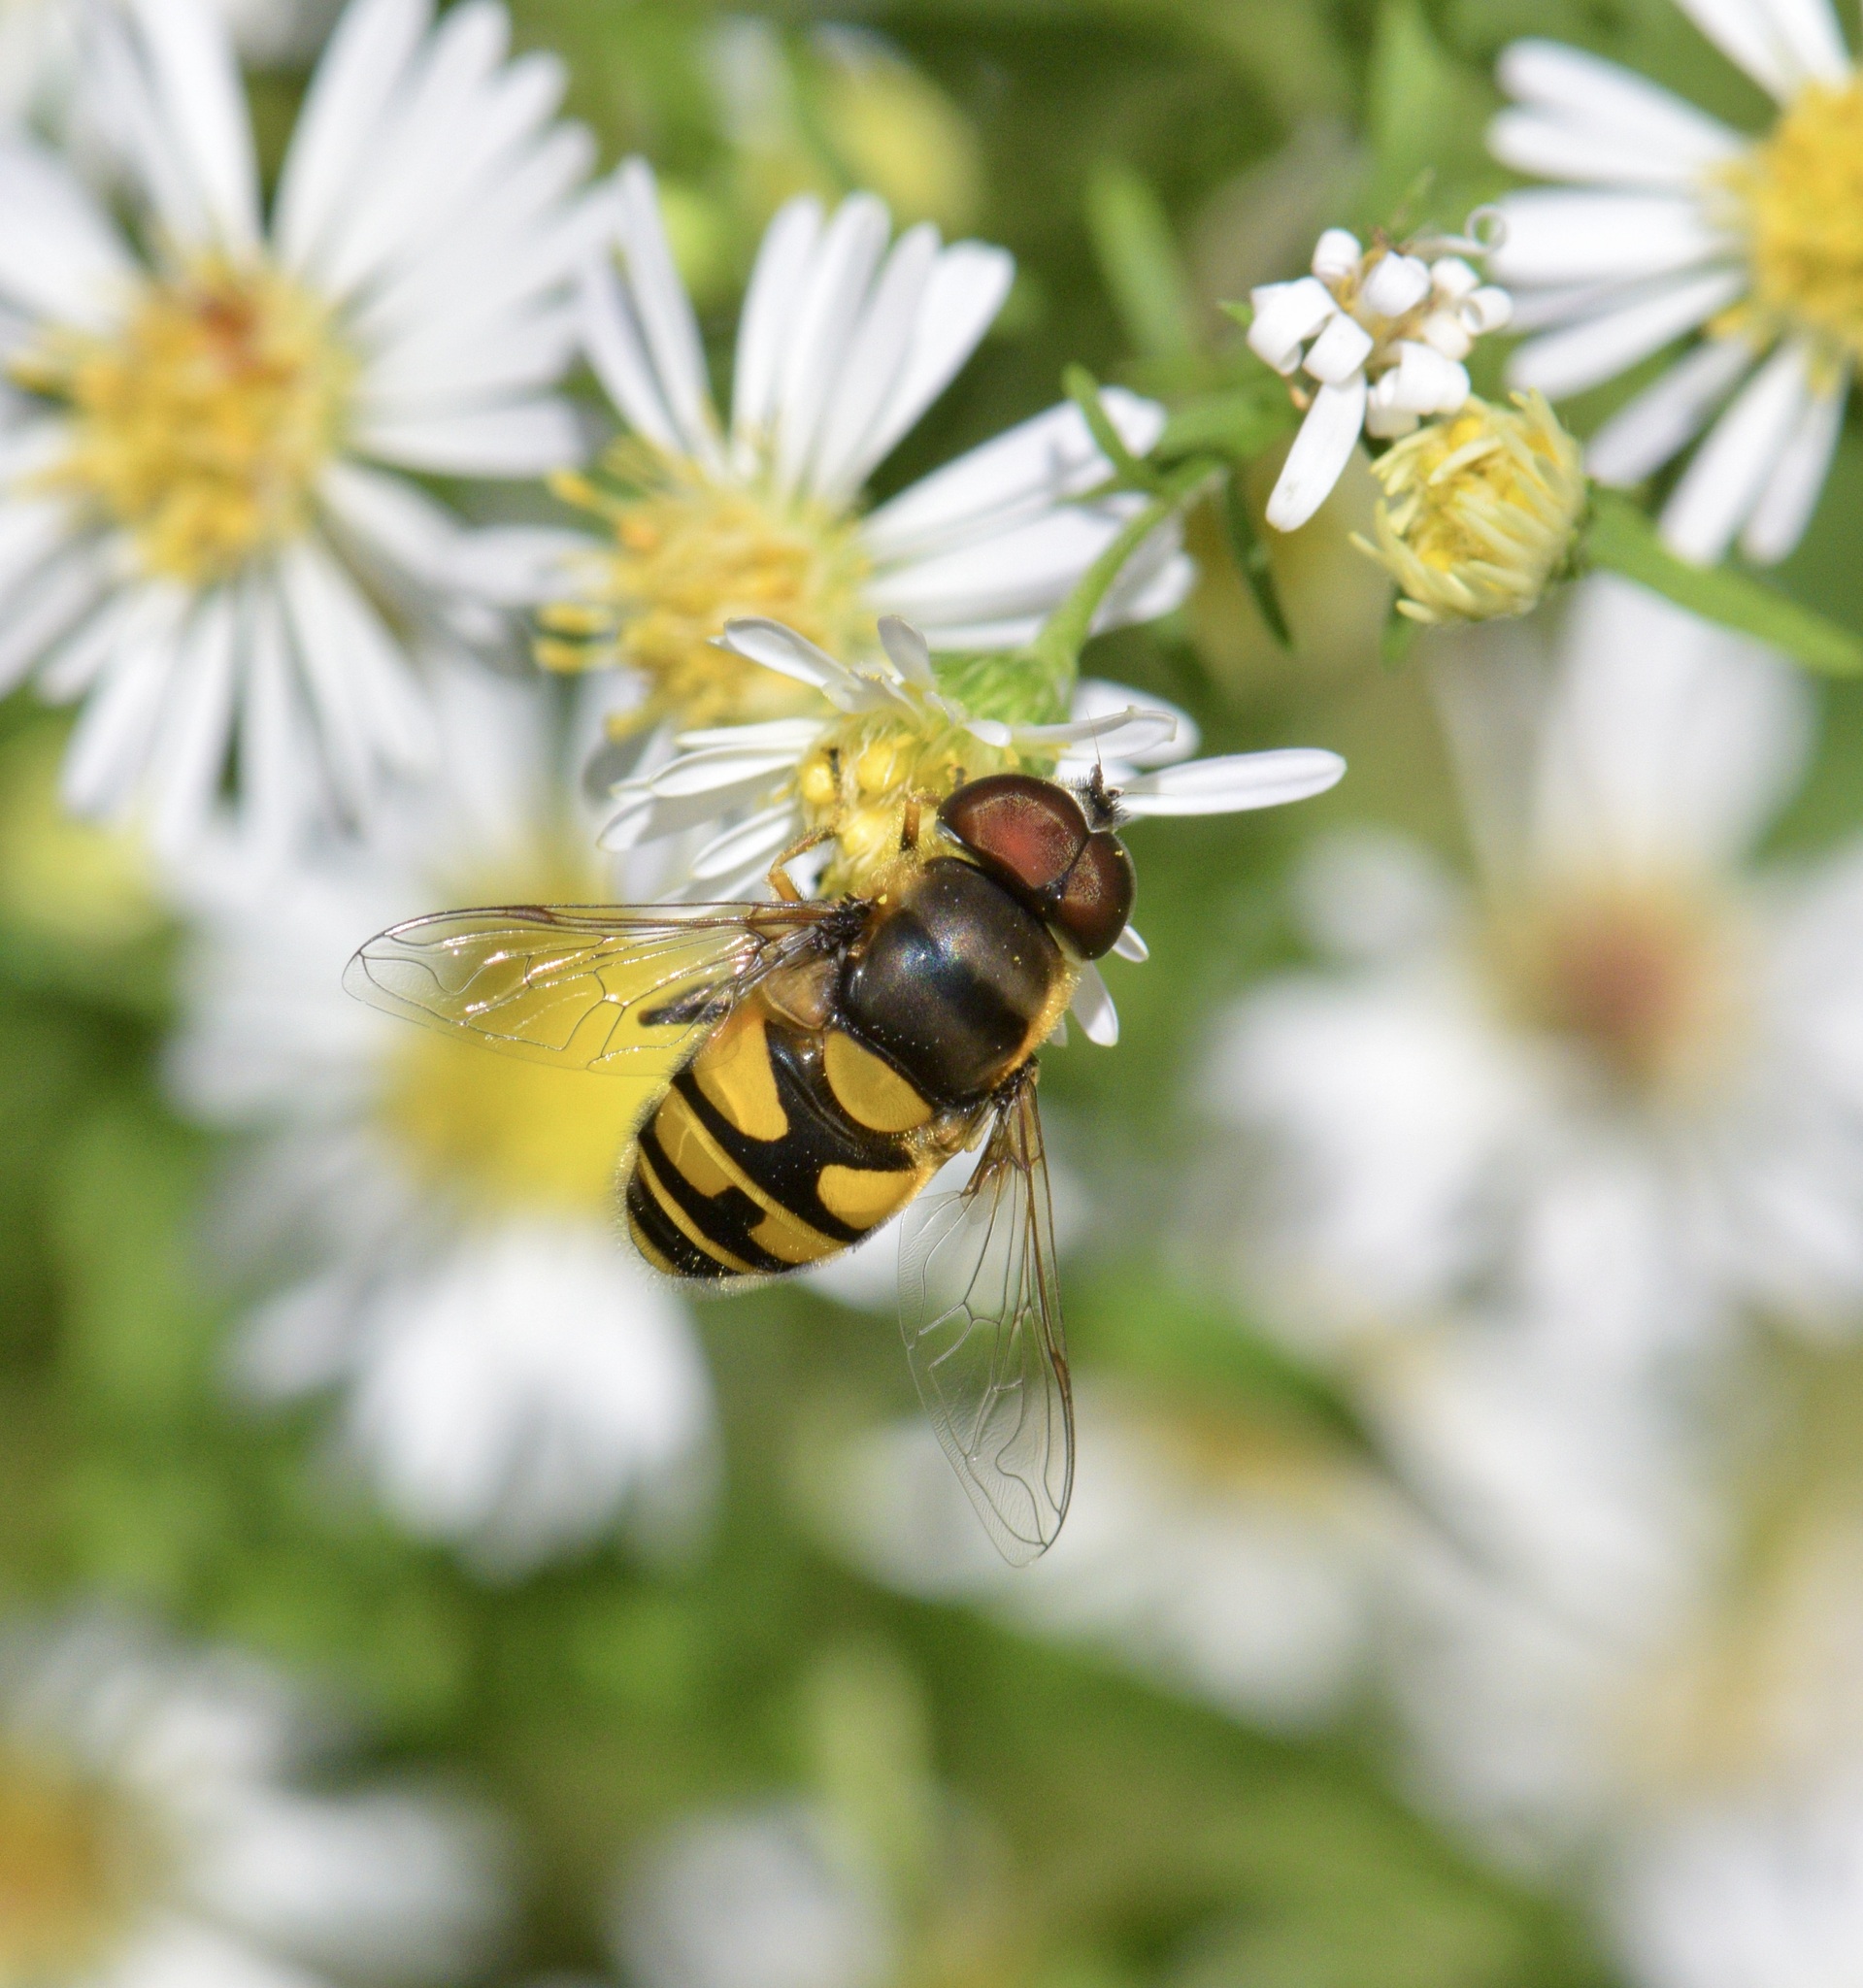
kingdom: Animalia
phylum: Arthropoda
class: Insecta
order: Diptera
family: Syrphidae
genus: Eristalis
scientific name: Eristalis transversa
